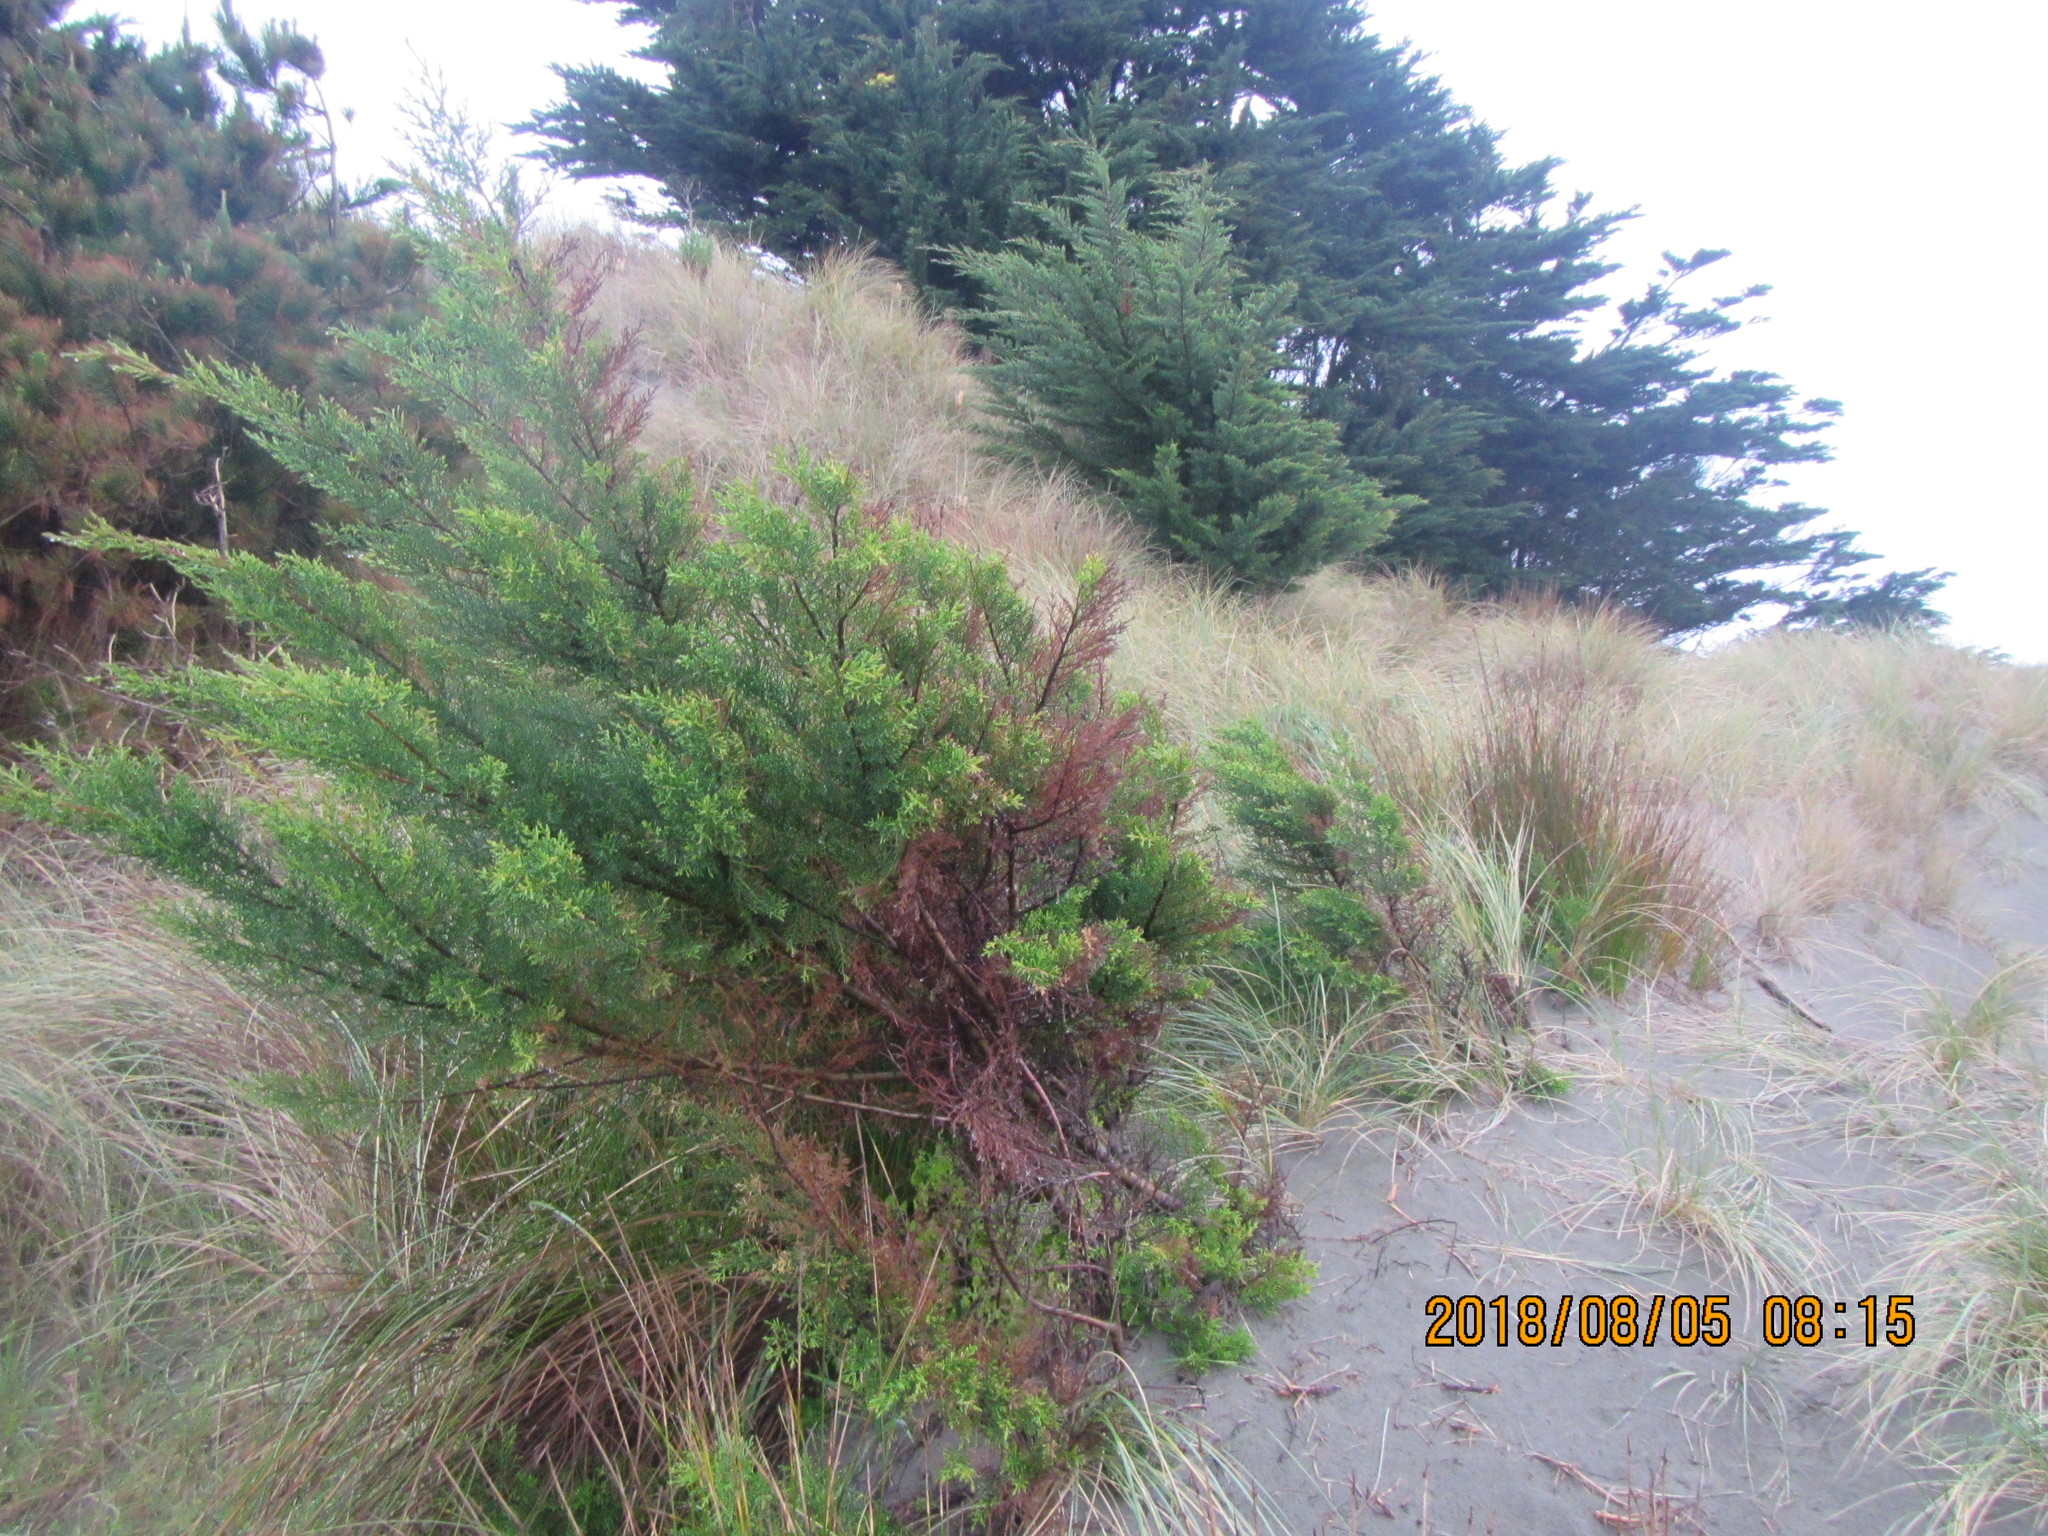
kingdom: Plantae
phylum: Tracheophyta
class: Pinopsida
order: Pinales
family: Cupressaceae
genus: Cupressus
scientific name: Cupressus macrocarpa
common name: Monterey cypress
